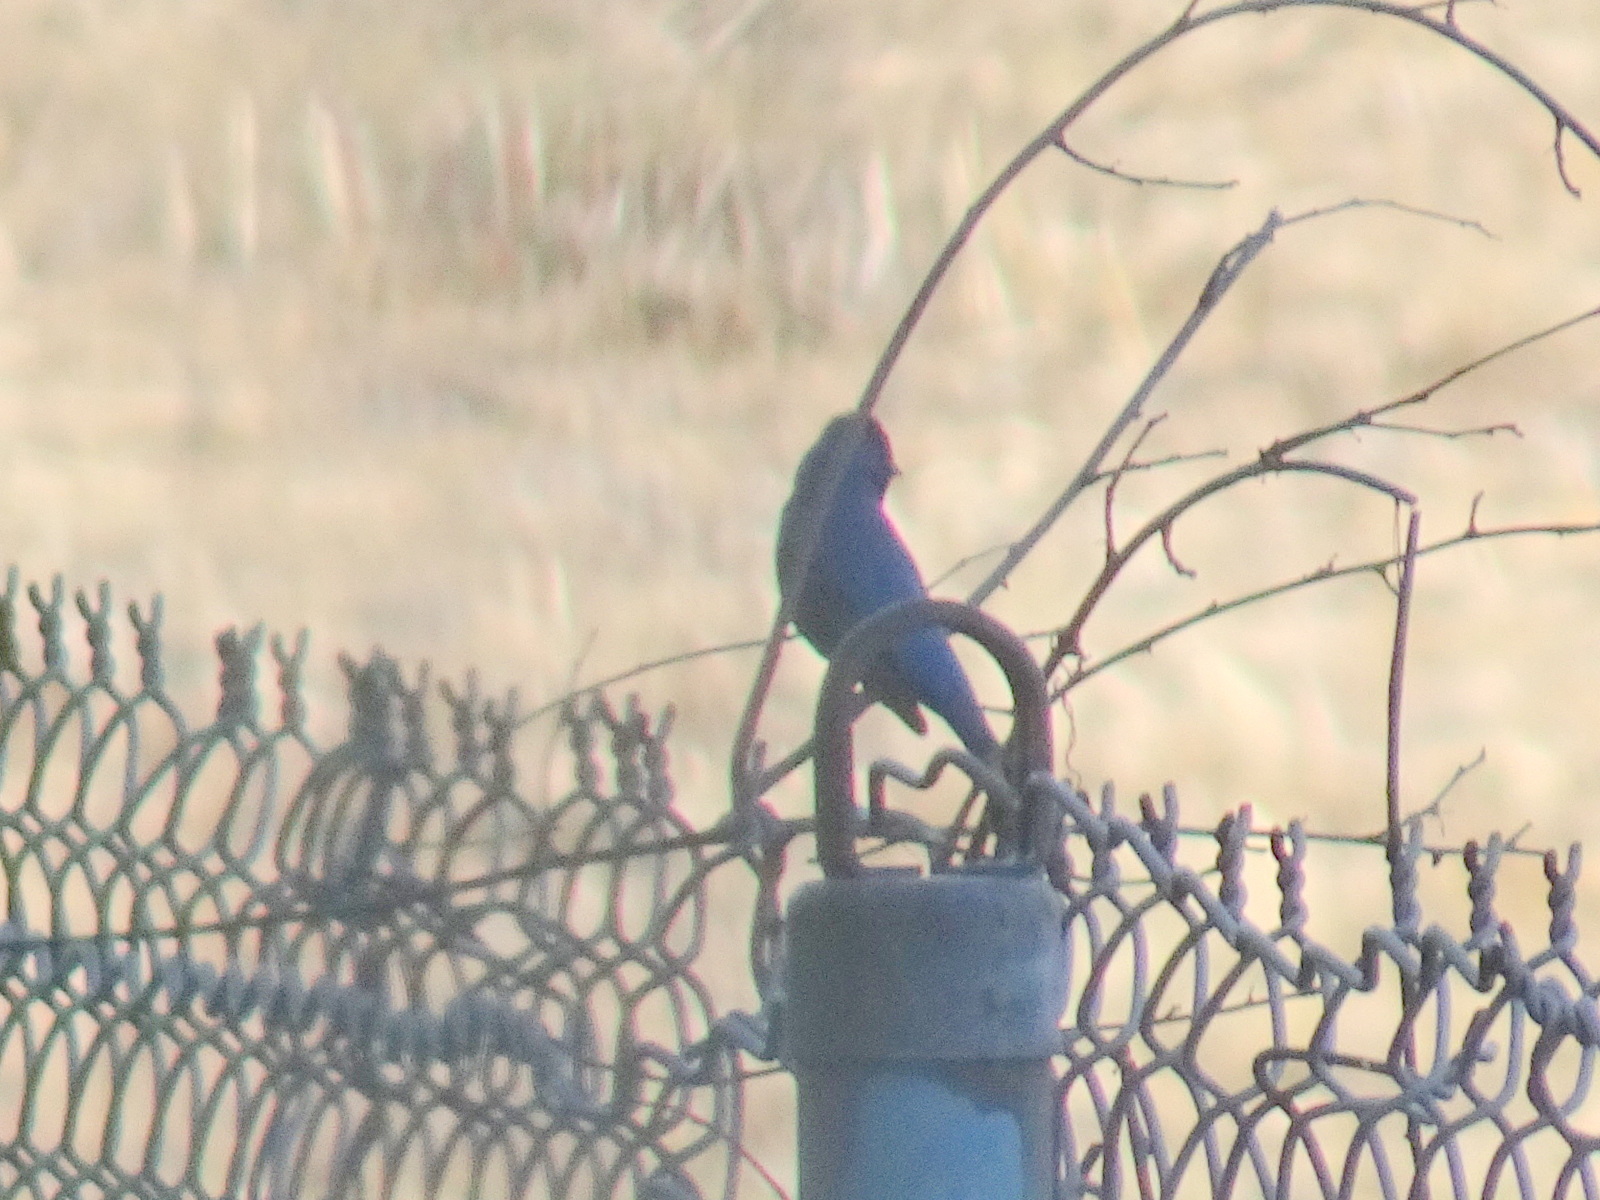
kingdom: Animalia
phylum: Chordata
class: Aves
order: Passeriformes
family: Cardinalidae
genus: Passerina
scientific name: Passerina cyanea
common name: Indigo bunting
